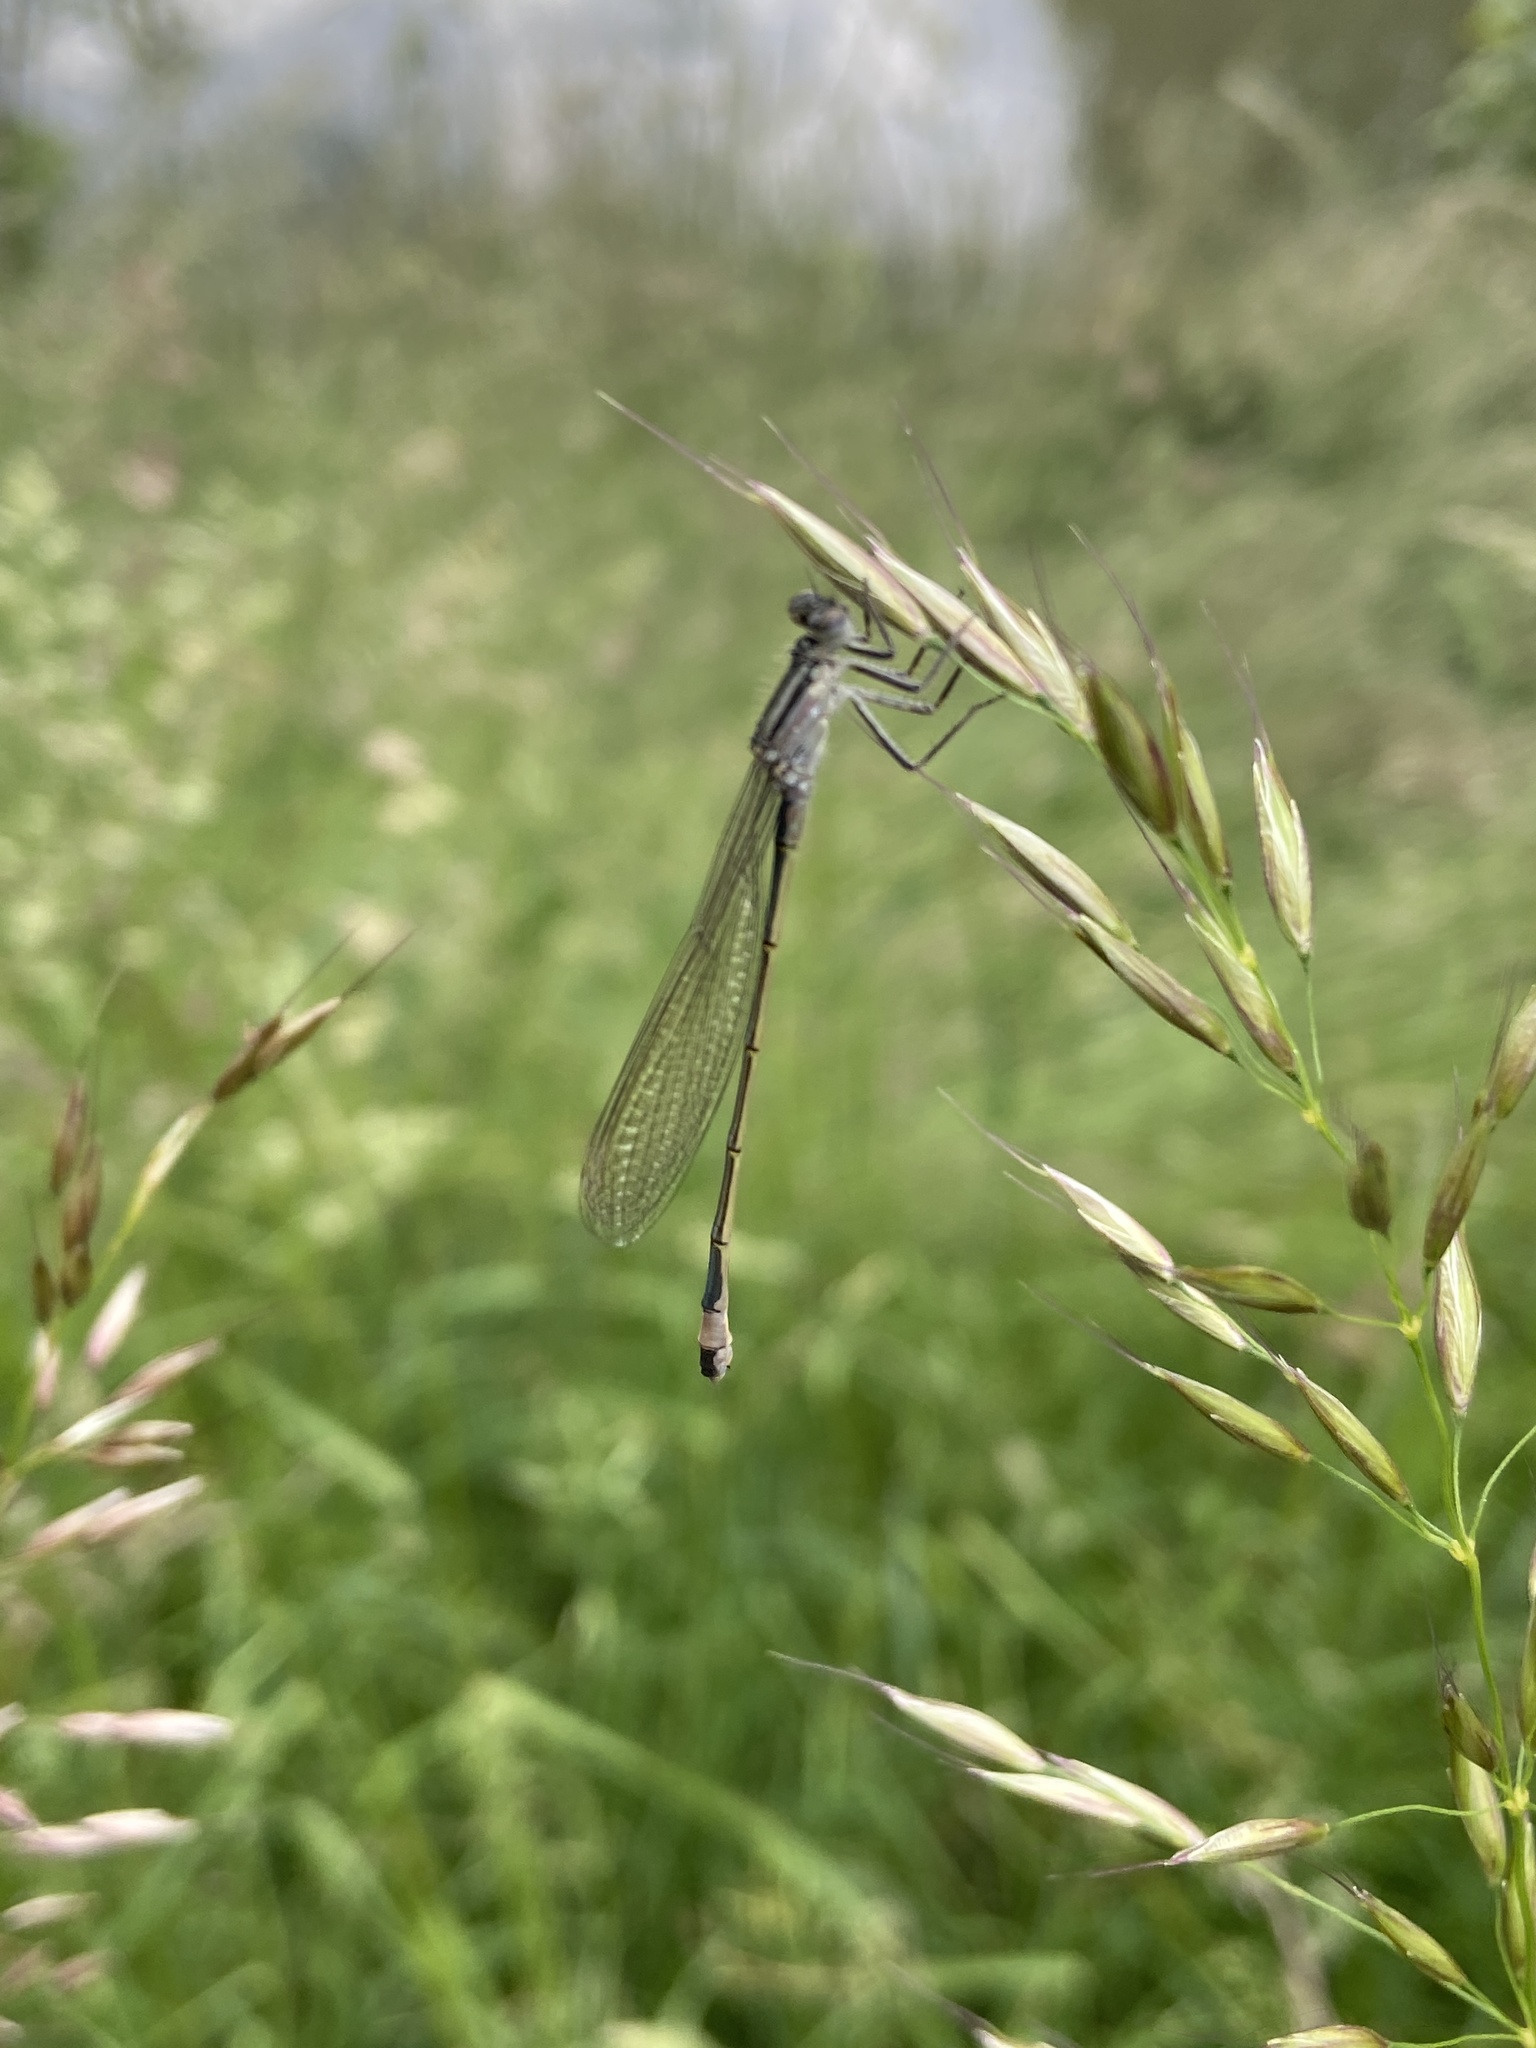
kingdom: Animalia
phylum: Arthropoda
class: Insecta
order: Odonata
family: Coenagrionidae
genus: Ischnura
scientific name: Ischnura elegans
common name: Blue-tailed damselfly
